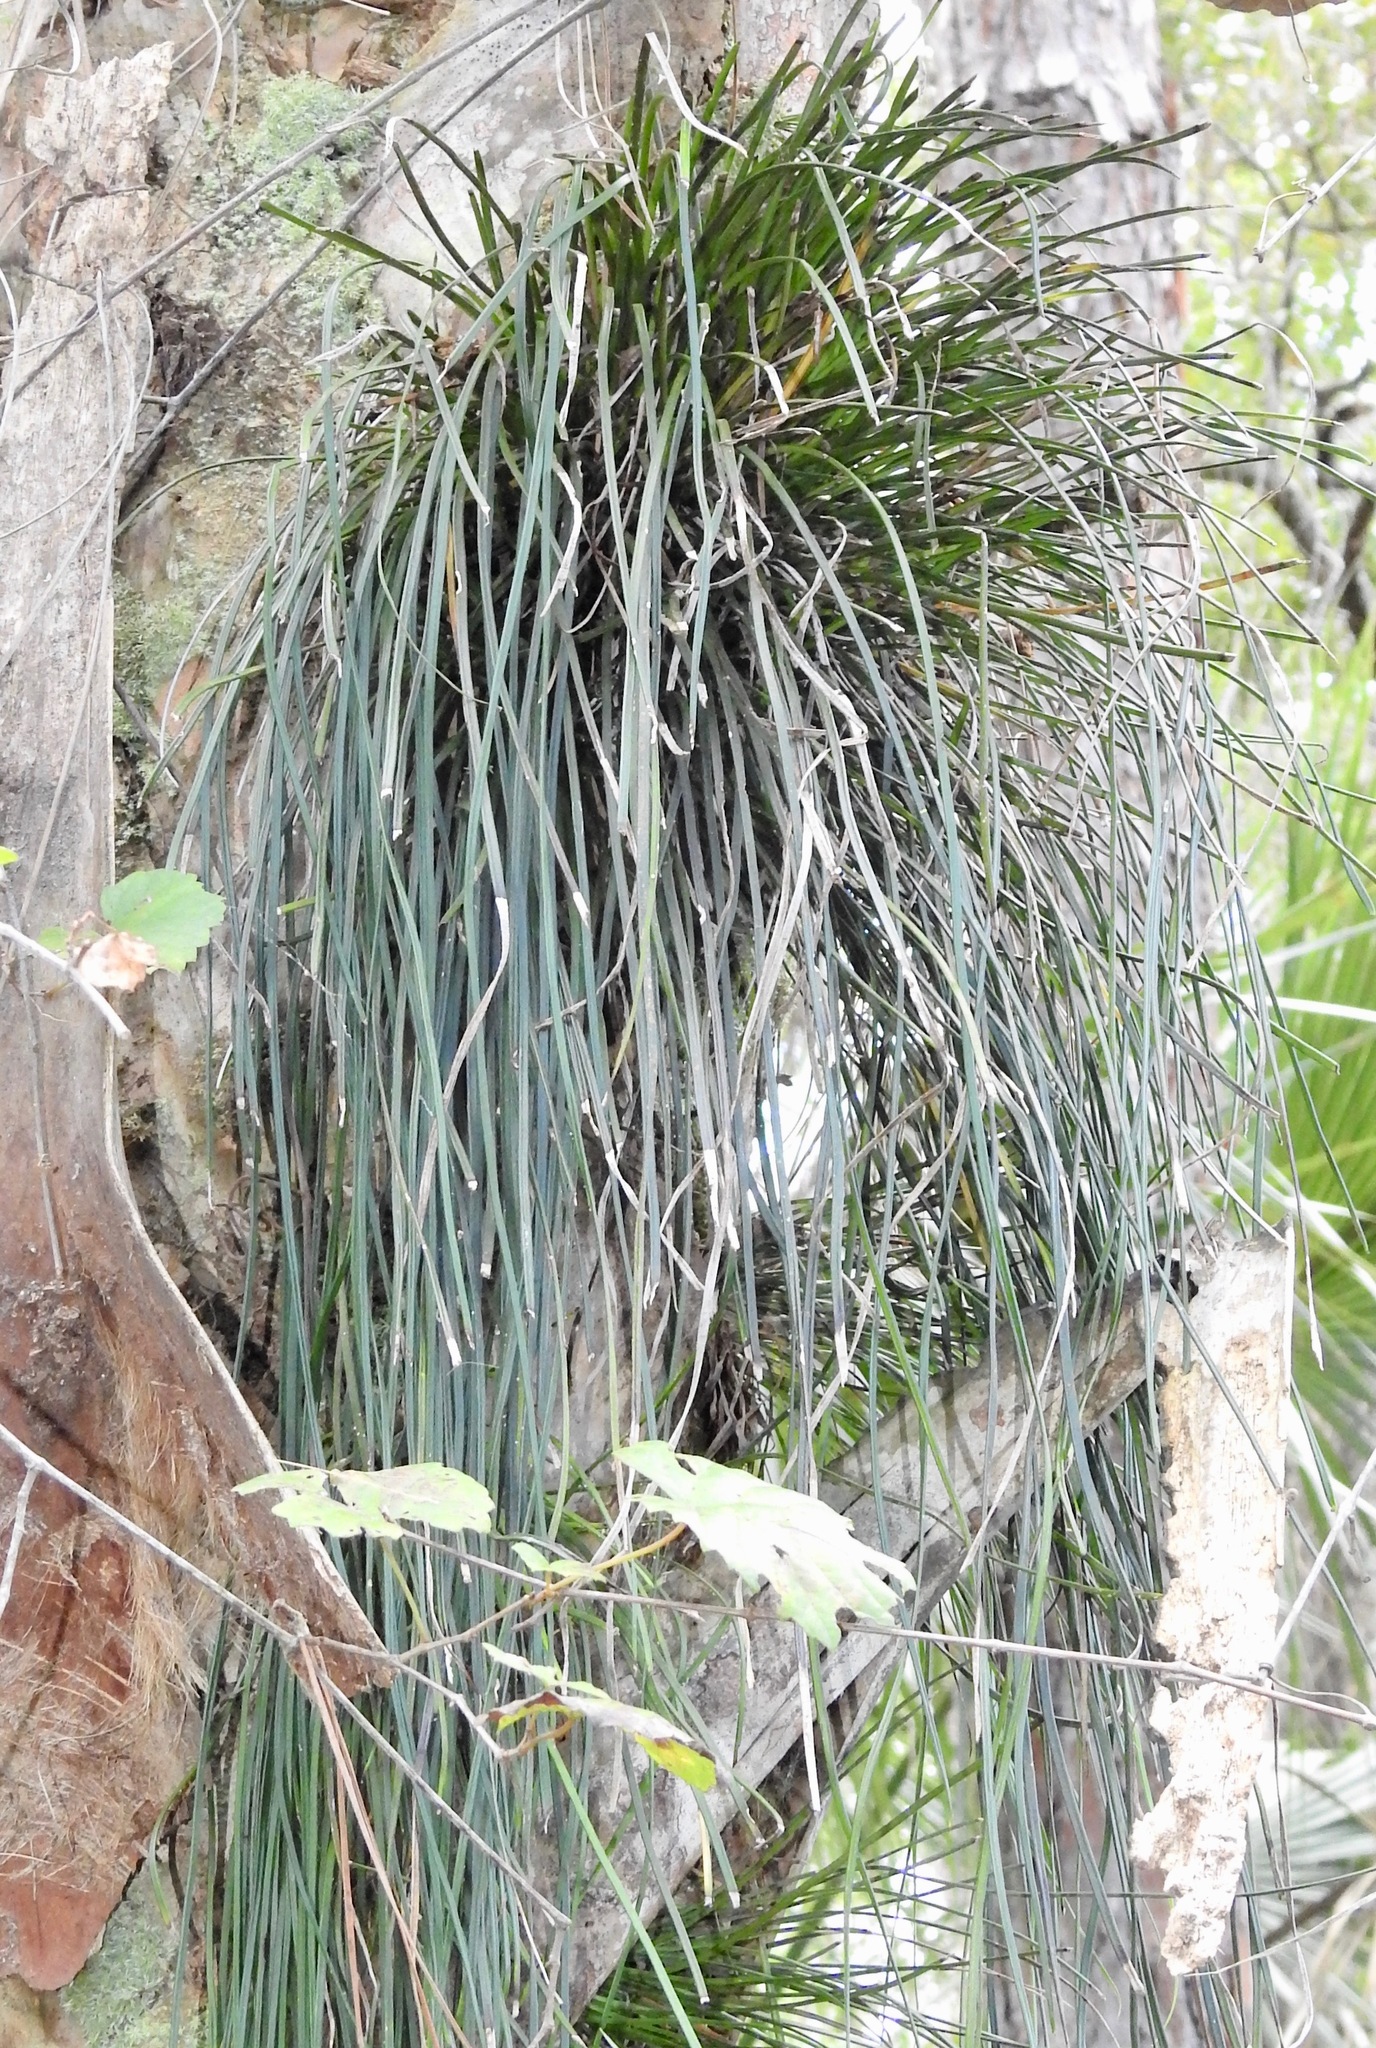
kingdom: Plantae
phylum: Tracheophyta
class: Polypodiopsida
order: Polypodiales
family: Pteridaceae
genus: Vittaria
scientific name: Vittaria lineata
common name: Shoestring fern
